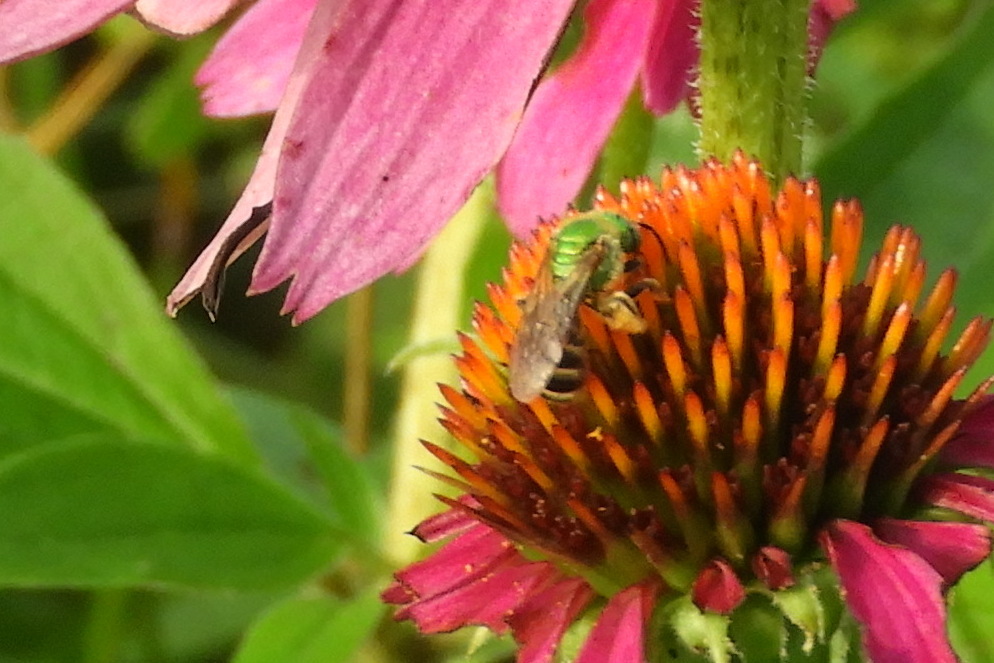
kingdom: Animalia
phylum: Arthropoda
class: Insecta
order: Hymenoptera
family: Halictidae
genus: Agapostemon
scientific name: Agapostemon virescens
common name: Bicolored striped sweat bee
